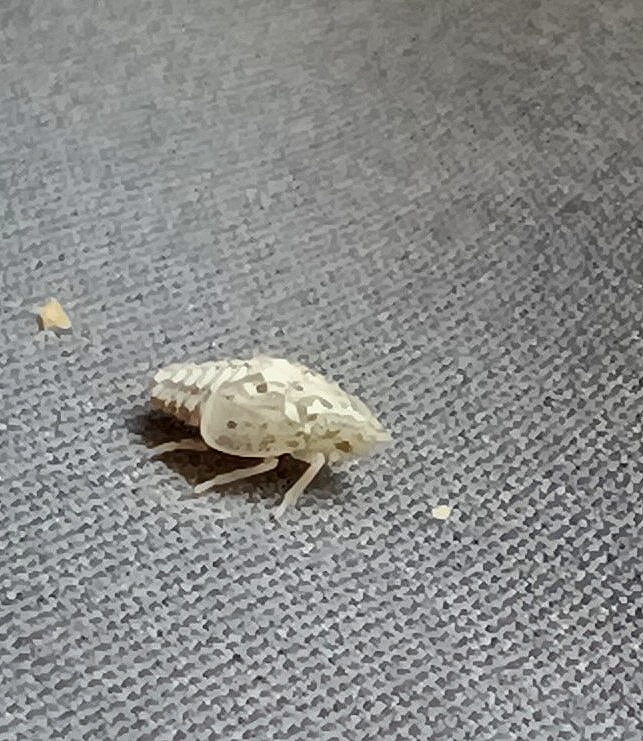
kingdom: Animalia
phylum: Arthropoda
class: Insecta
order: Hemiptera
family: Flatidae
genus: Siphanta
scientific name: Siphanta acuta
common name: Torpedo bug
